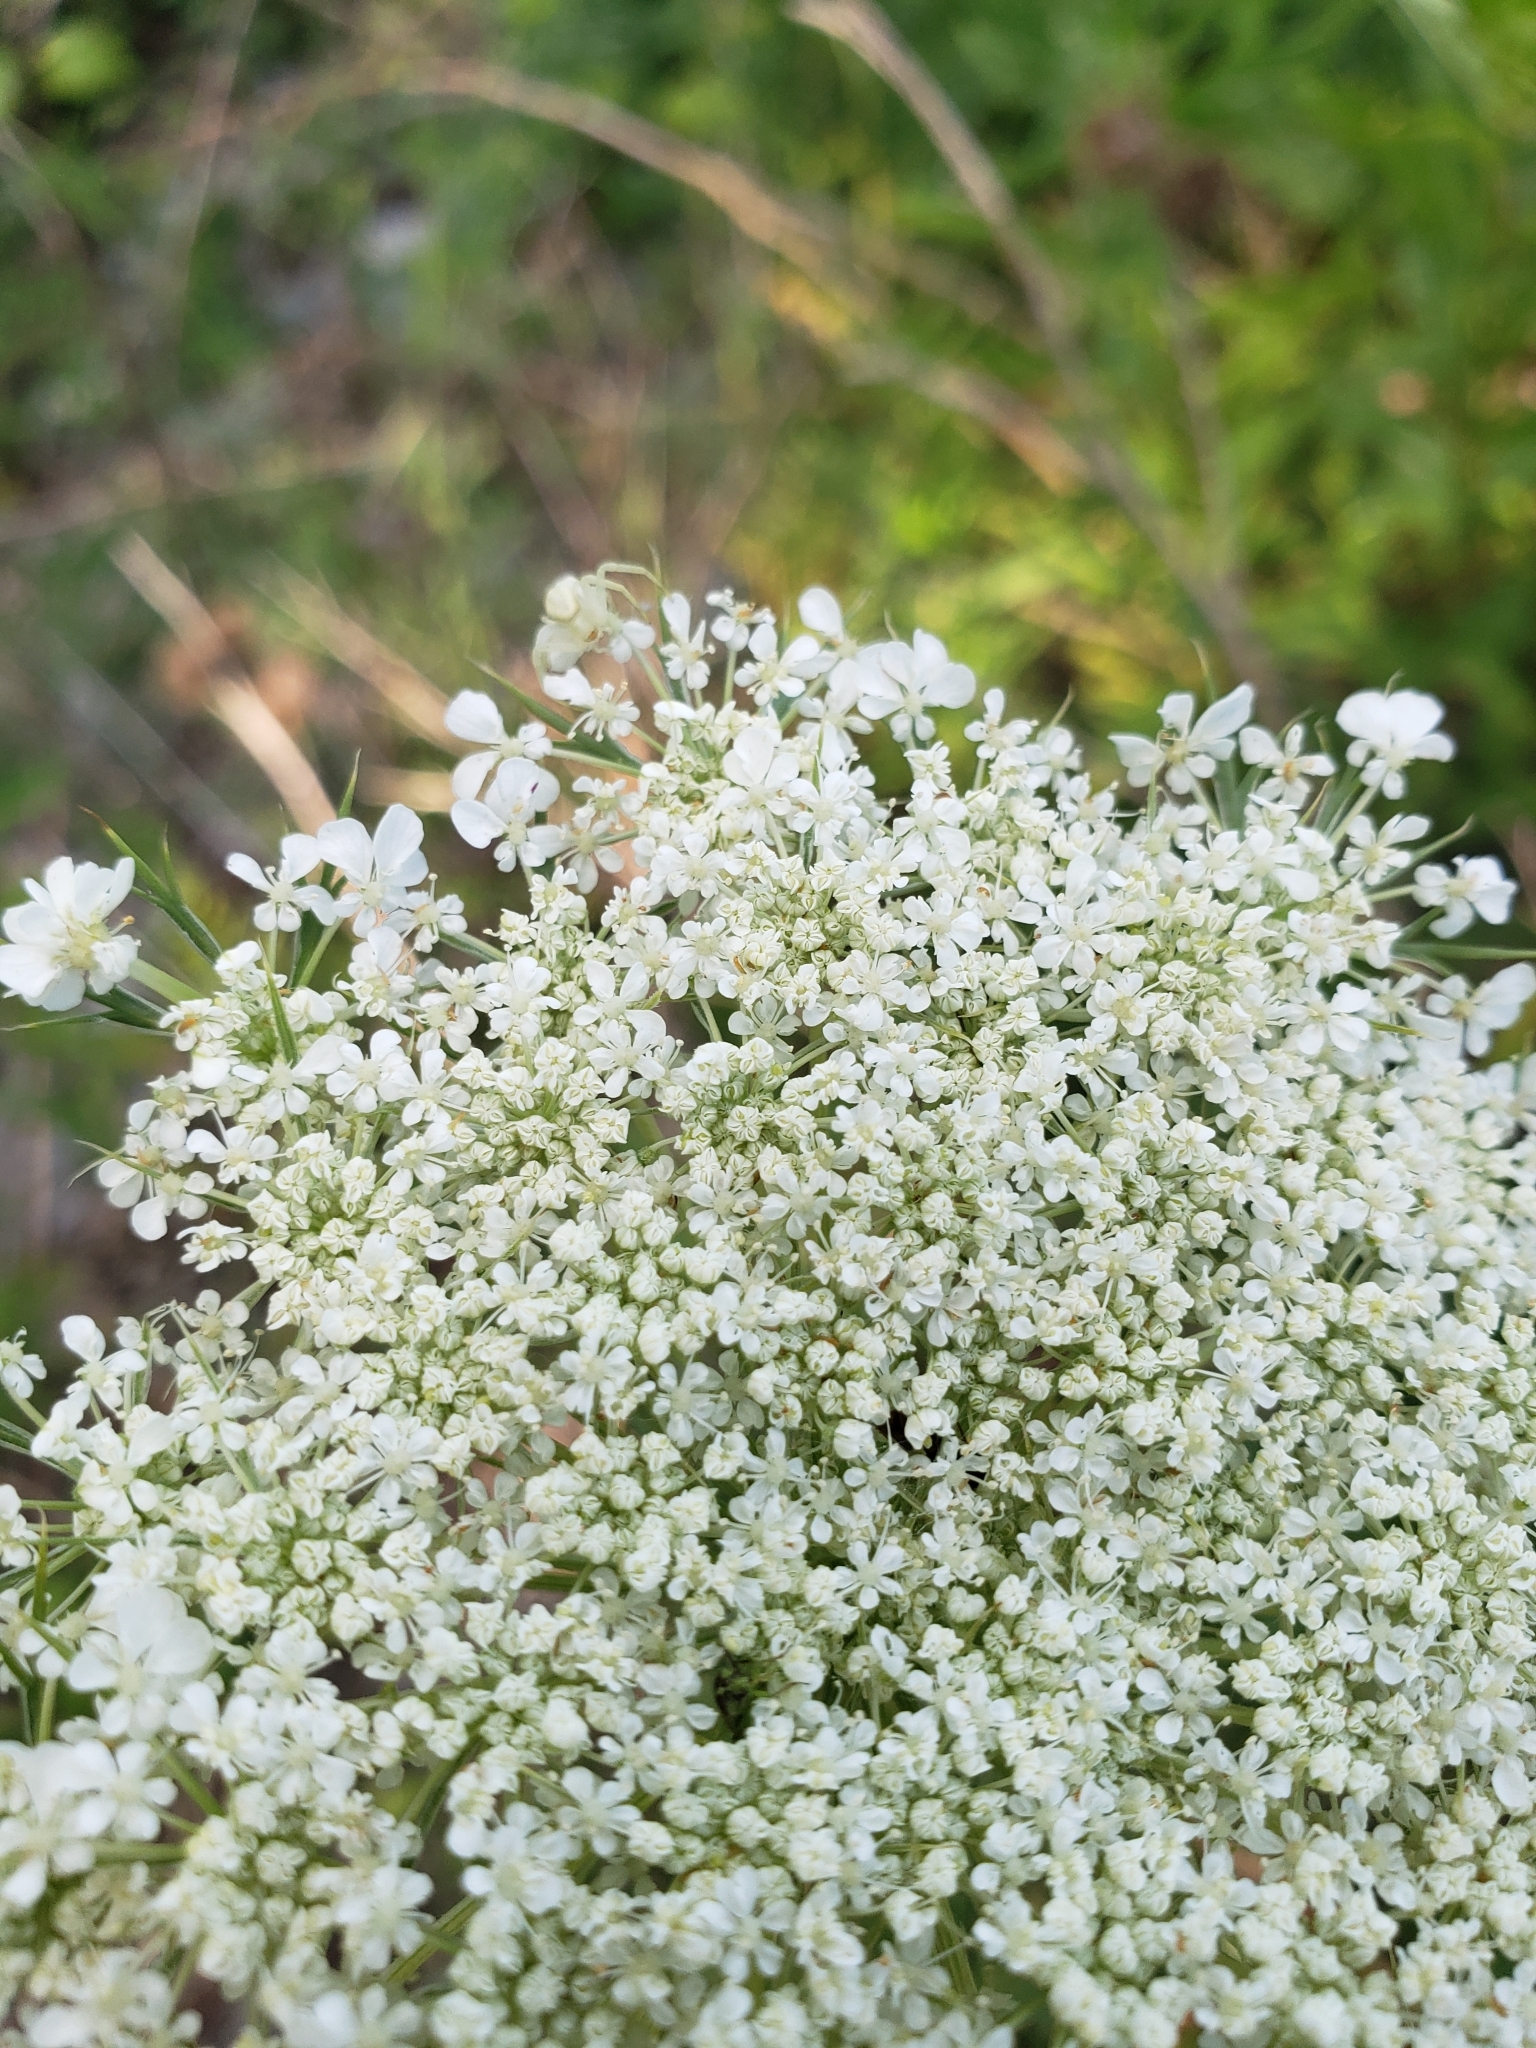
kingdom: Plantae
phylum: Tracheophyta
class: Magnoliopsida
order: Apiales
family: Apiaceae
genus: Daucus
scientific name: Daucus carota
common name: Wild carrot
